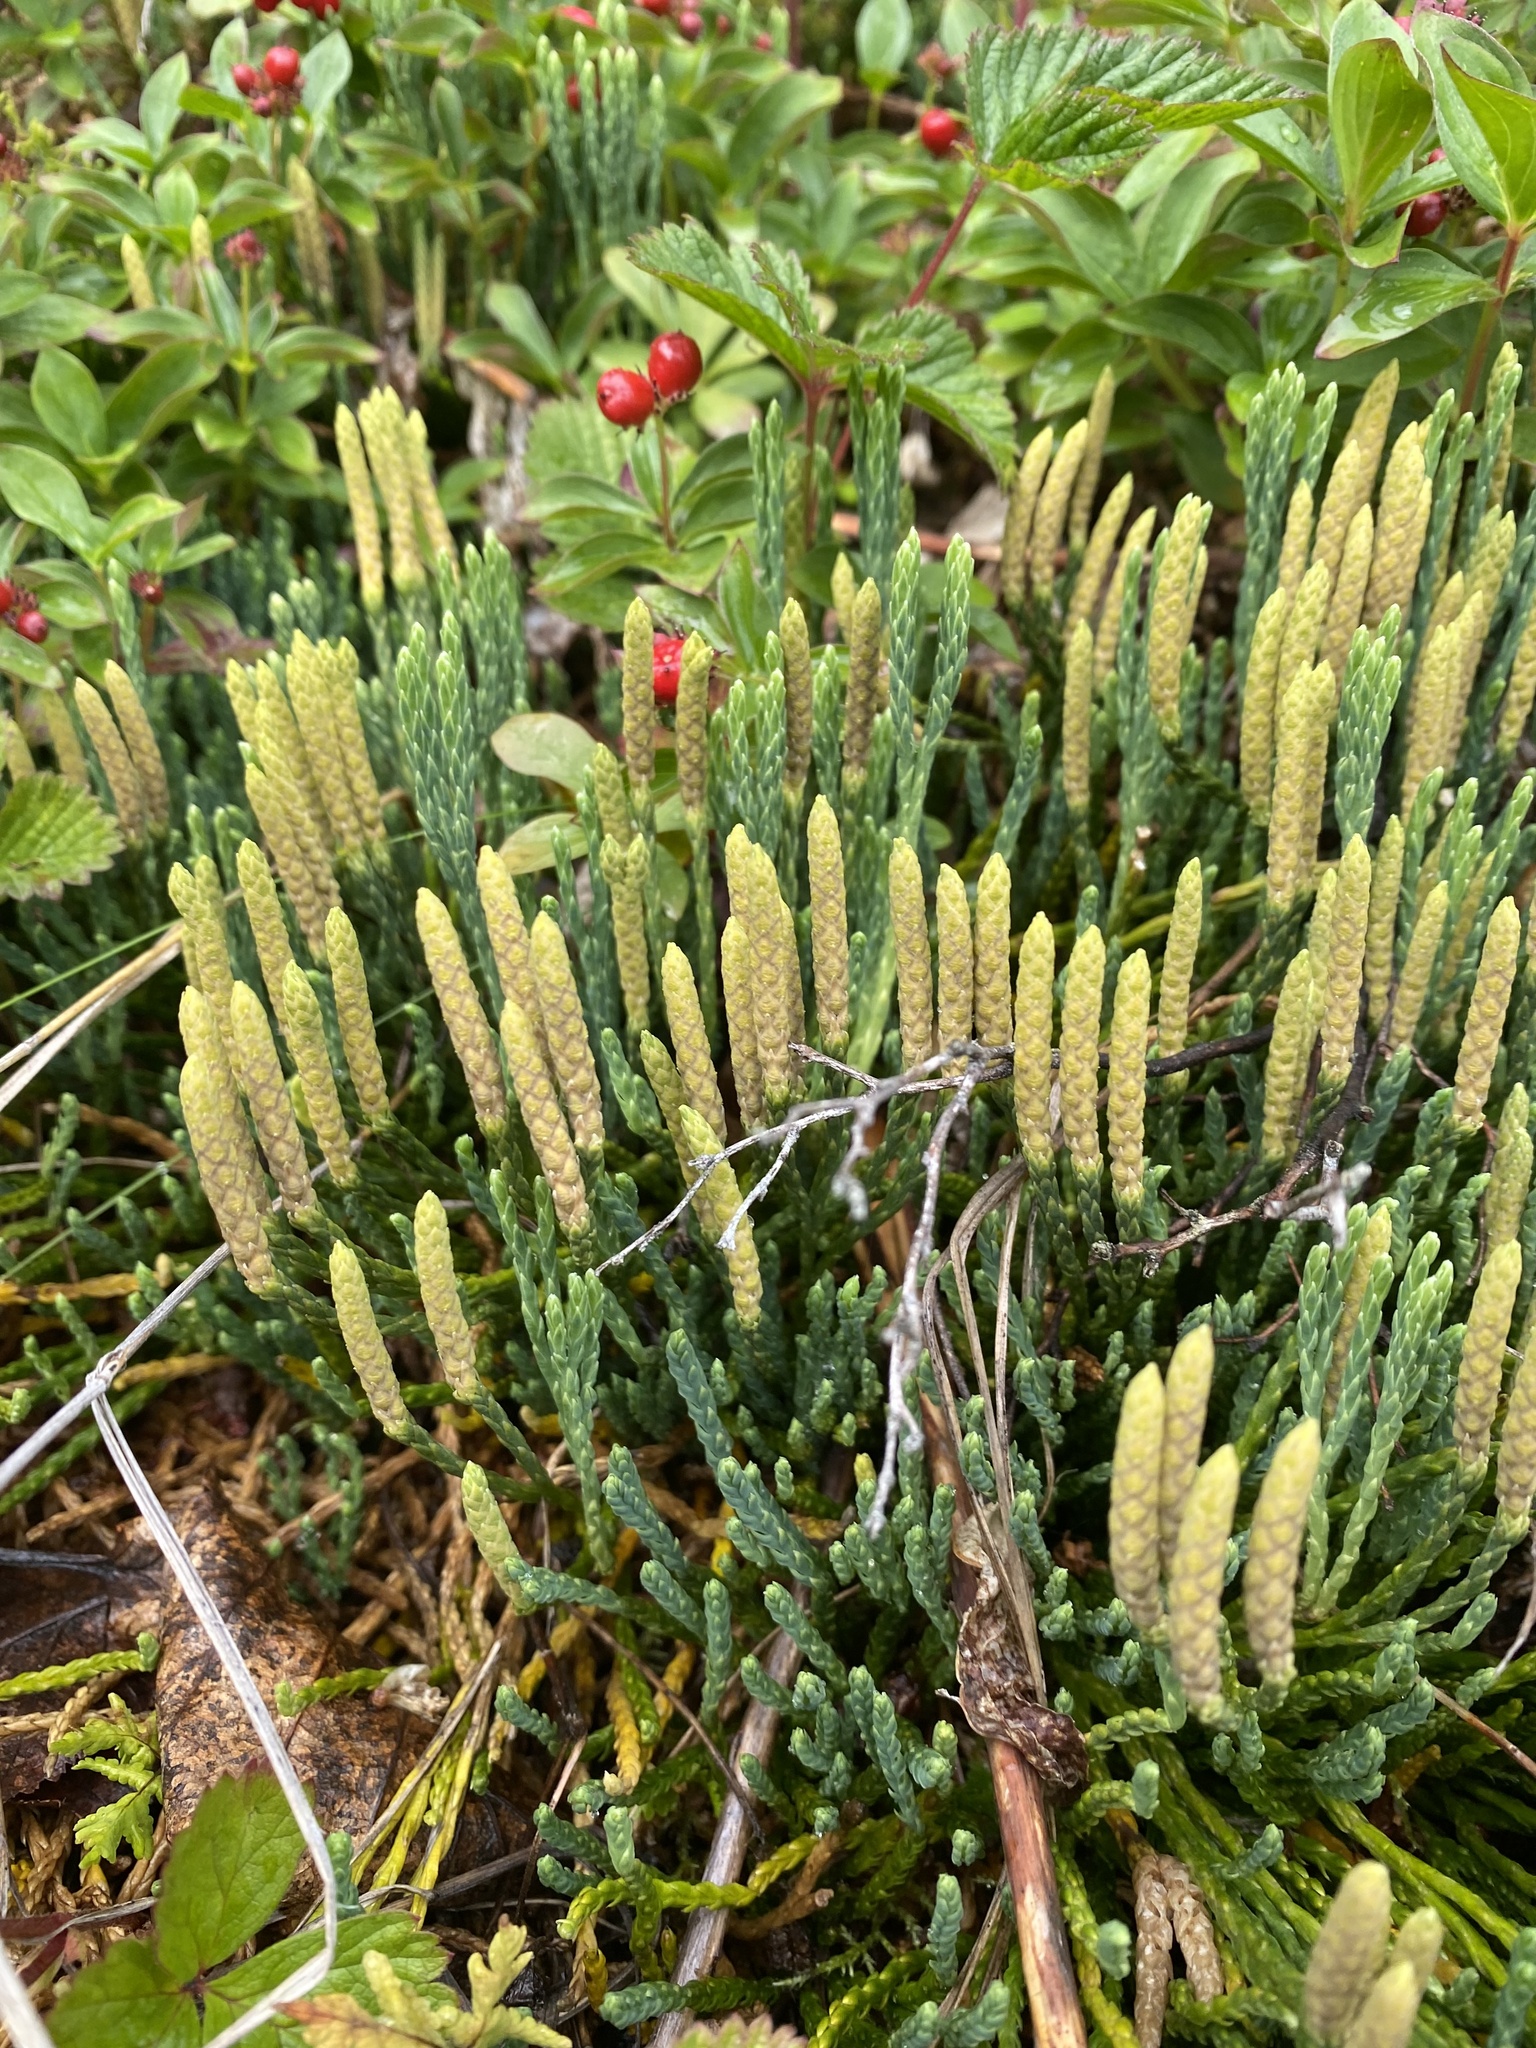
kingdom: Plantae
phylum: Tracheophyta
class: Lycopodiopsida
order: Lycopodiales
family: Lycopodiaceae
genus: Diphasiastrum
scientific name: Diphasiastrum alpinum
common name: Alpine clubmoss
